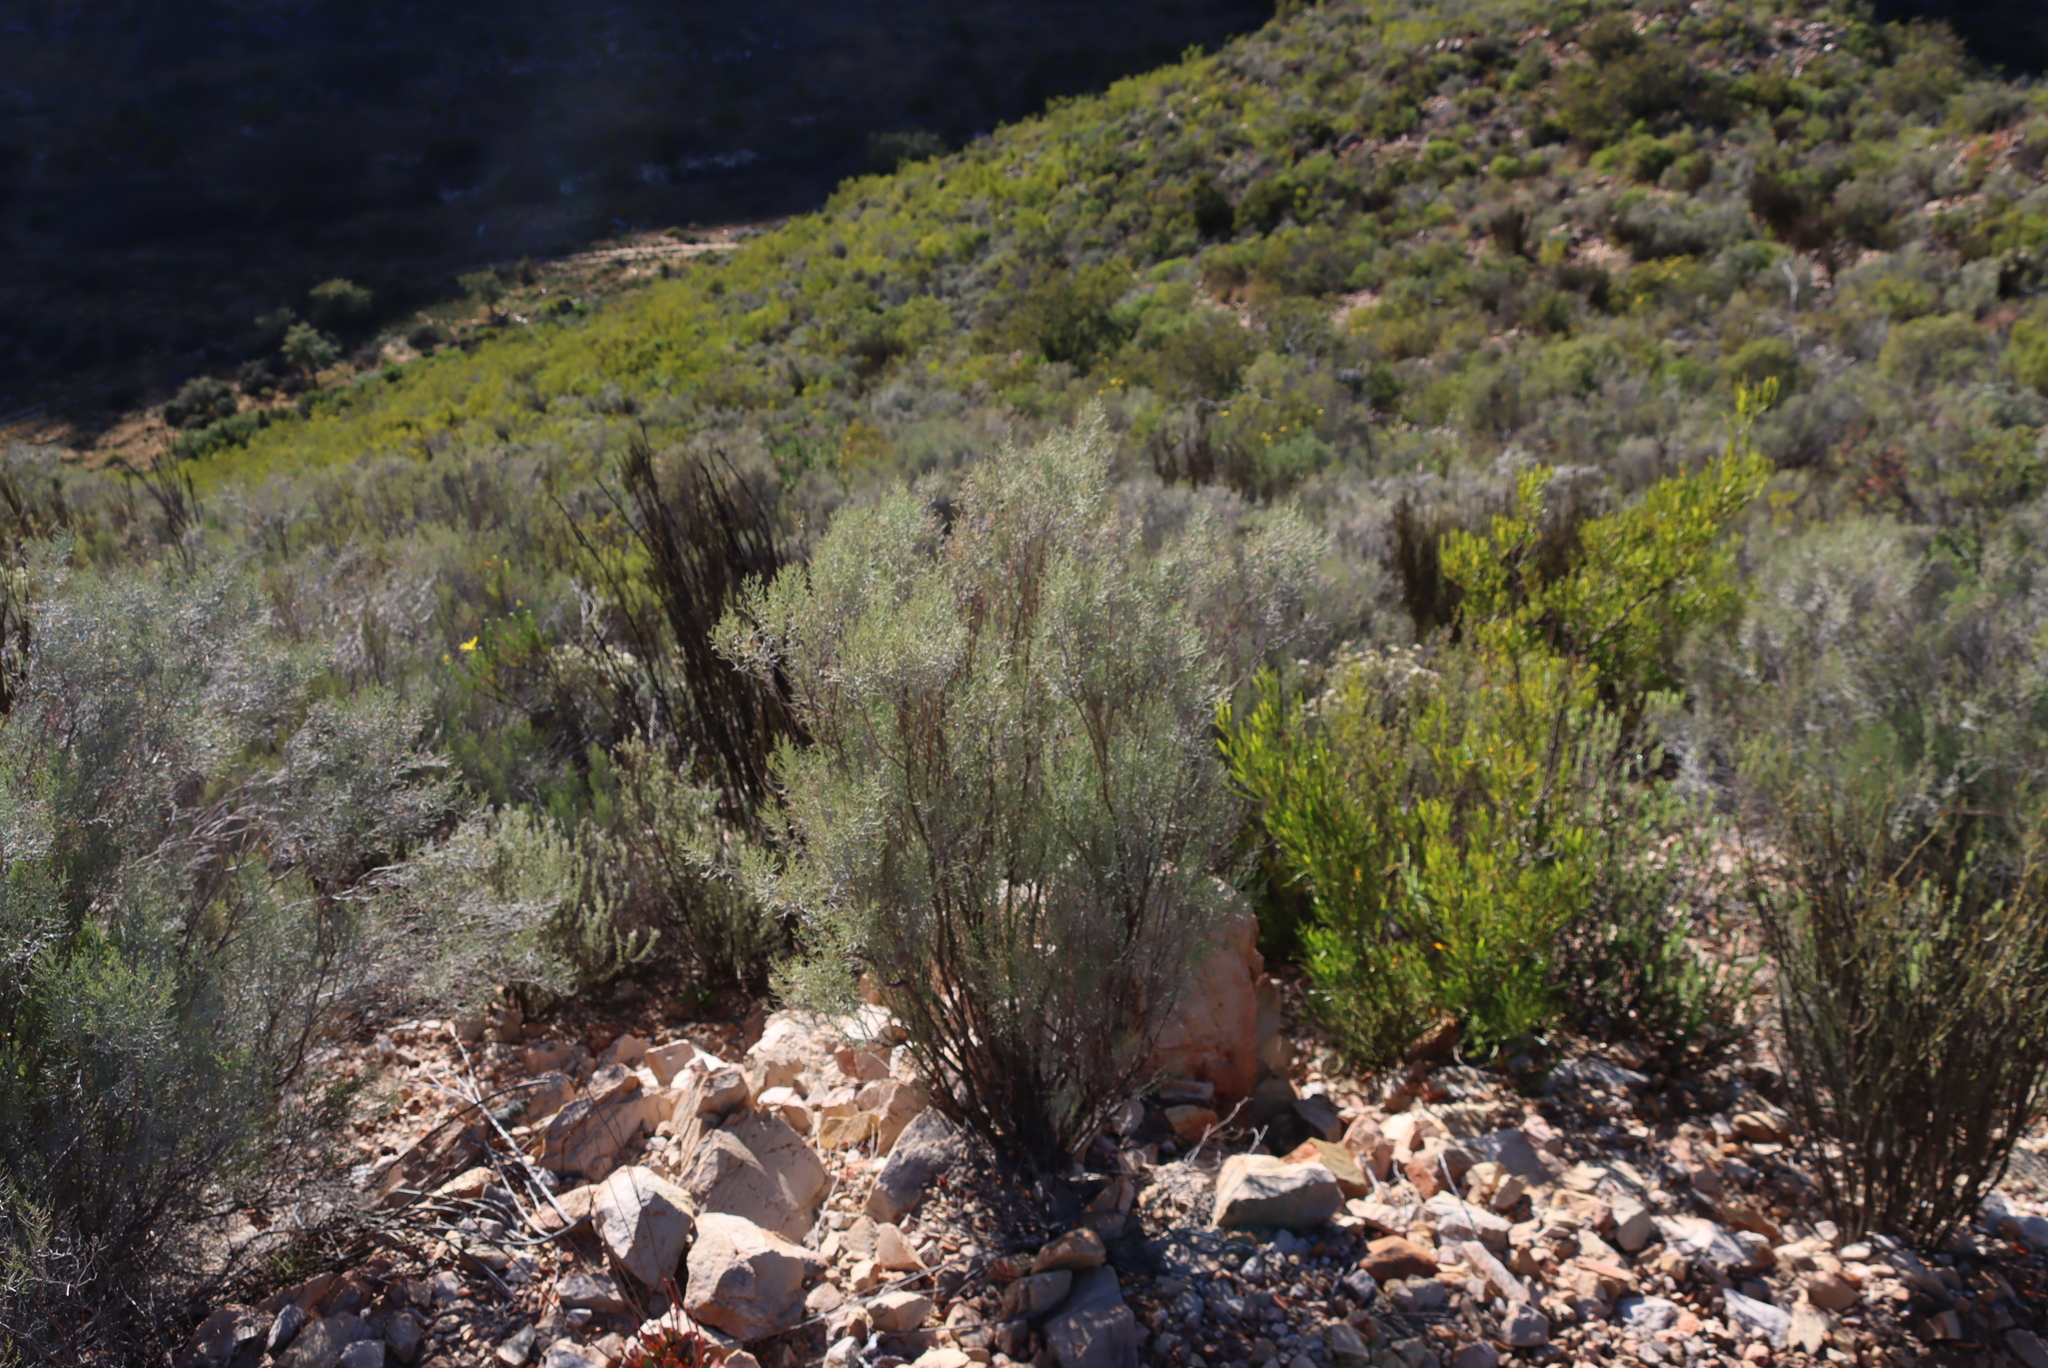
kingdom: Plantae
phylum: Tracheophyta
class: Magnoliopsida
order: Asterales
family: Asteraceae
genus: Dicerothamnus
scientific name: Dicerothamnus rhinocerotis
